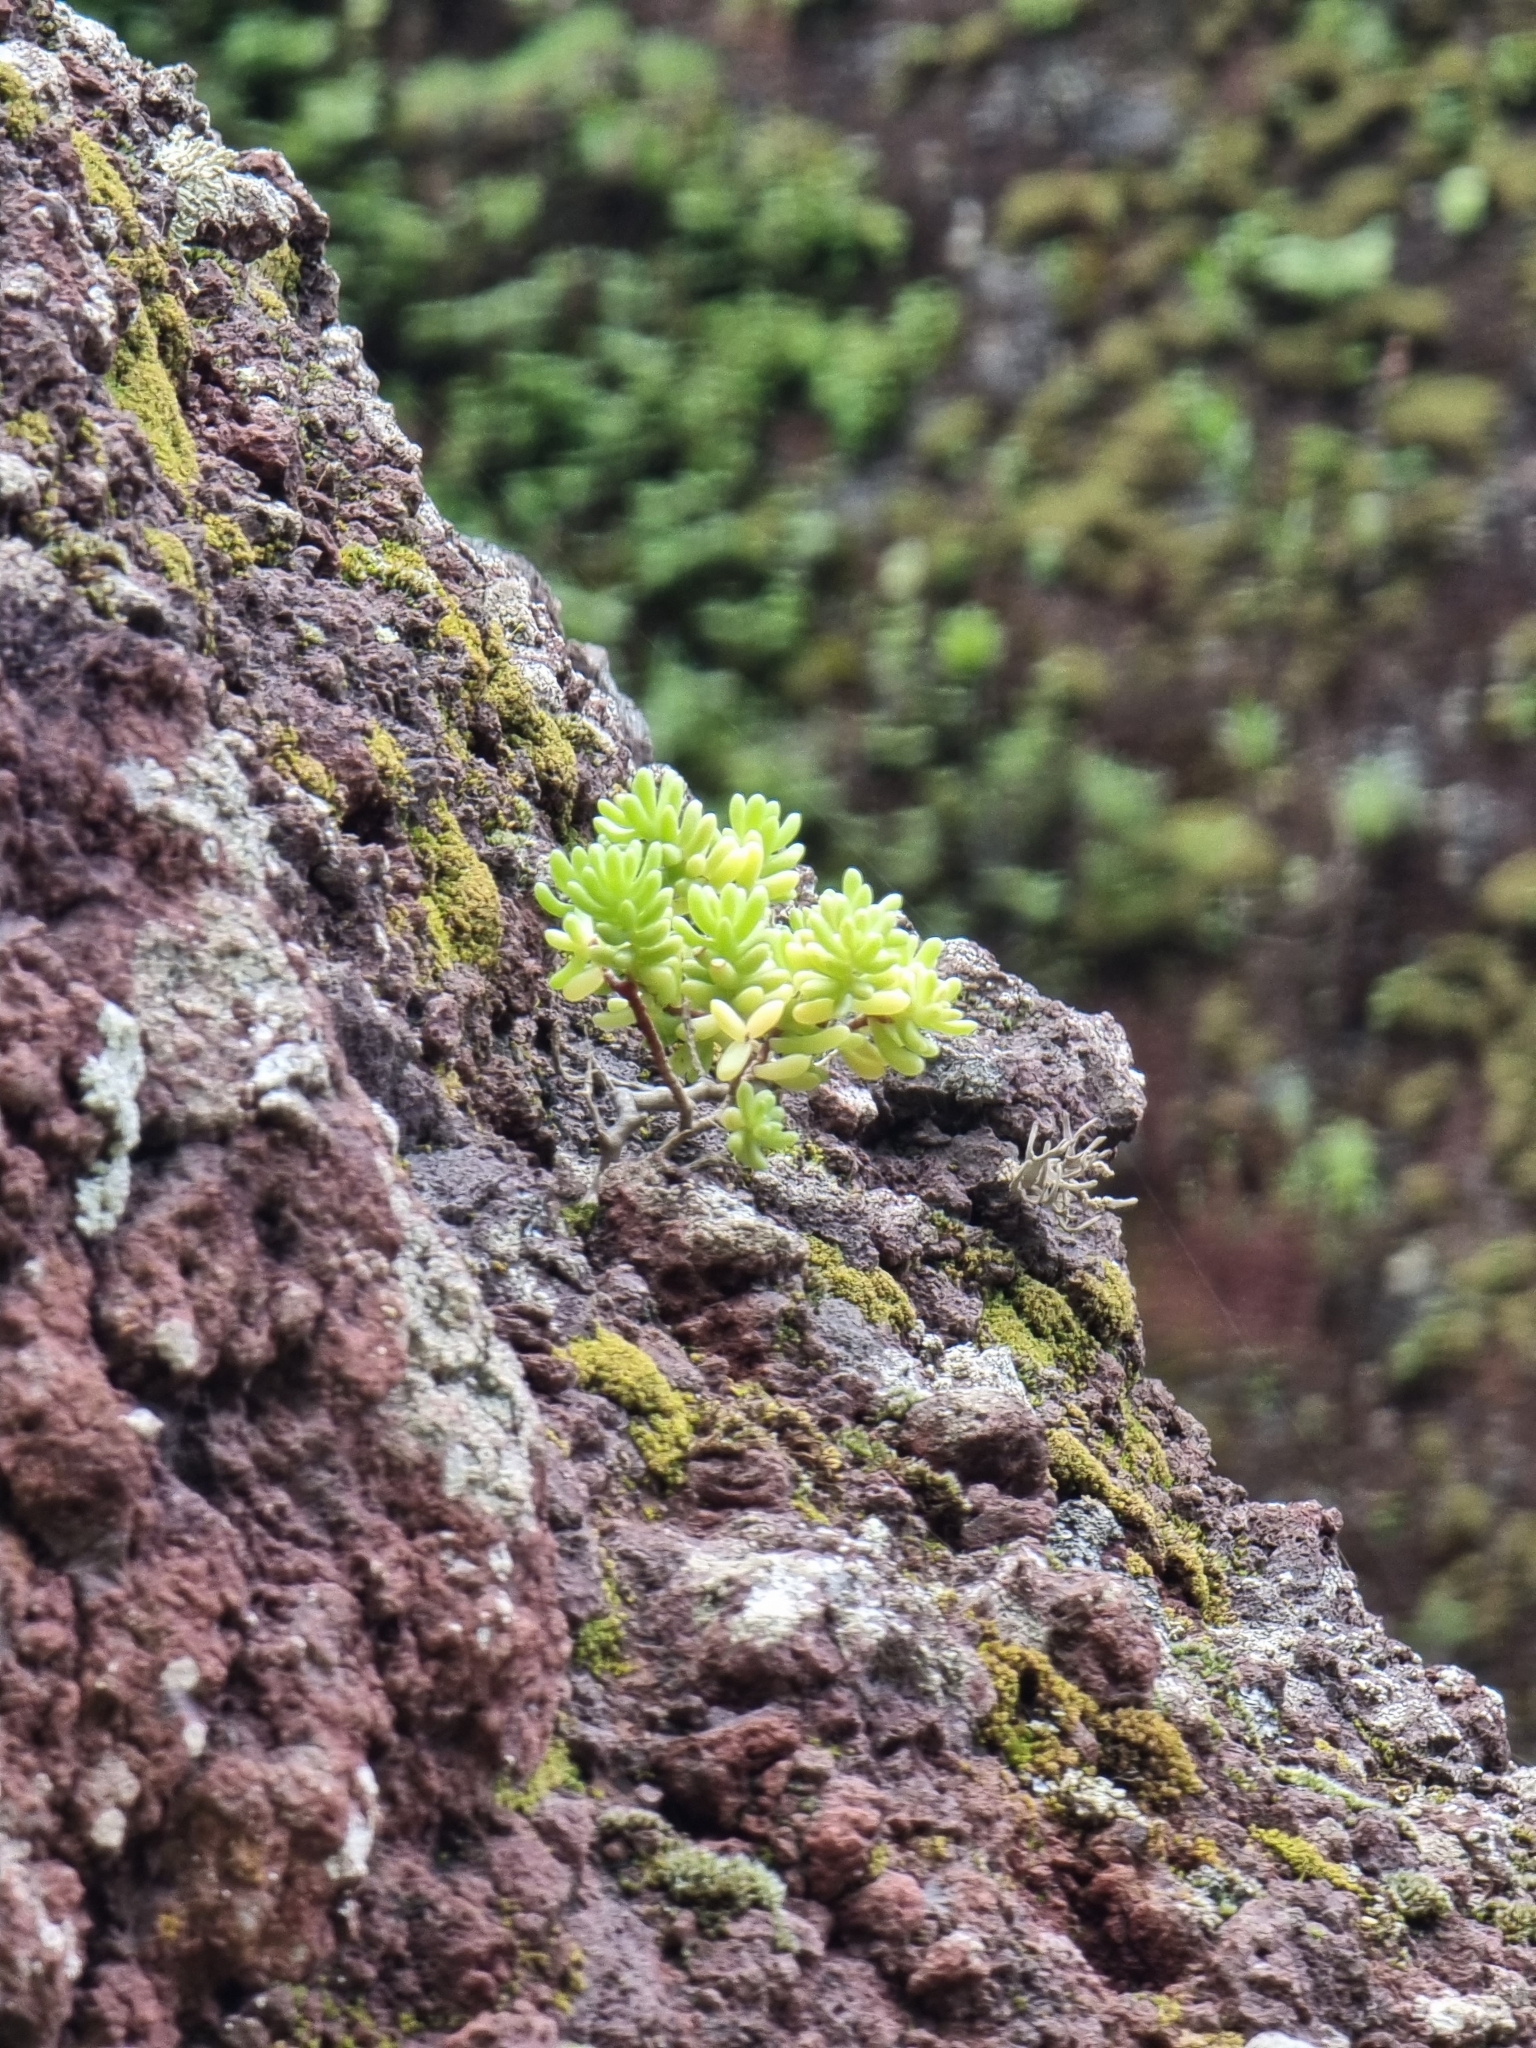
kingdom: Plantae
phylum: Tracheophyta
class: Magnoliopsida
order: Saxifragales
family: Crassulaceae
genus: Sedum
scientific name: Sedum nudum
